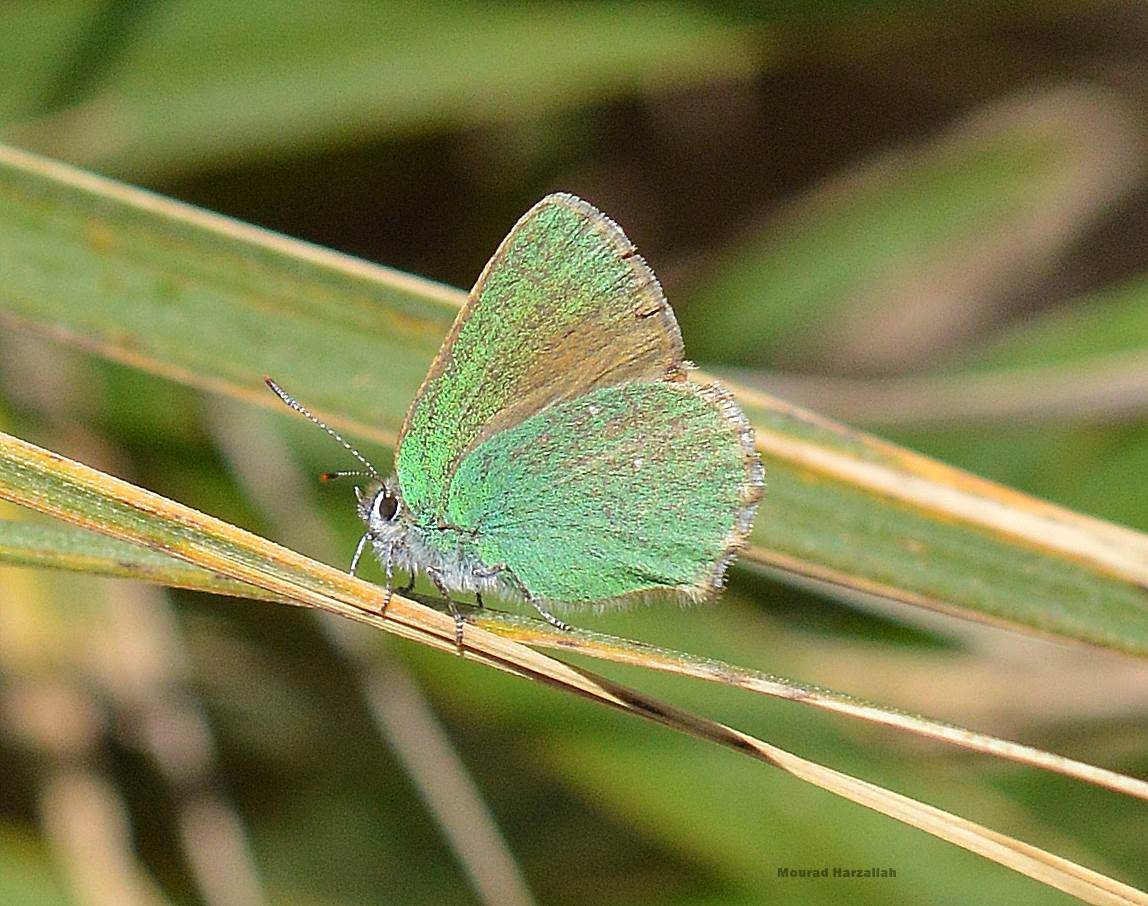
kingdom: Animalia
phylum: Arthropoda
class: Insecta
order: Lepidoptera
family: Lycaenidae
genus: Callophrys
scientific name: Callophrys rubi
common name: Green hairstreak
